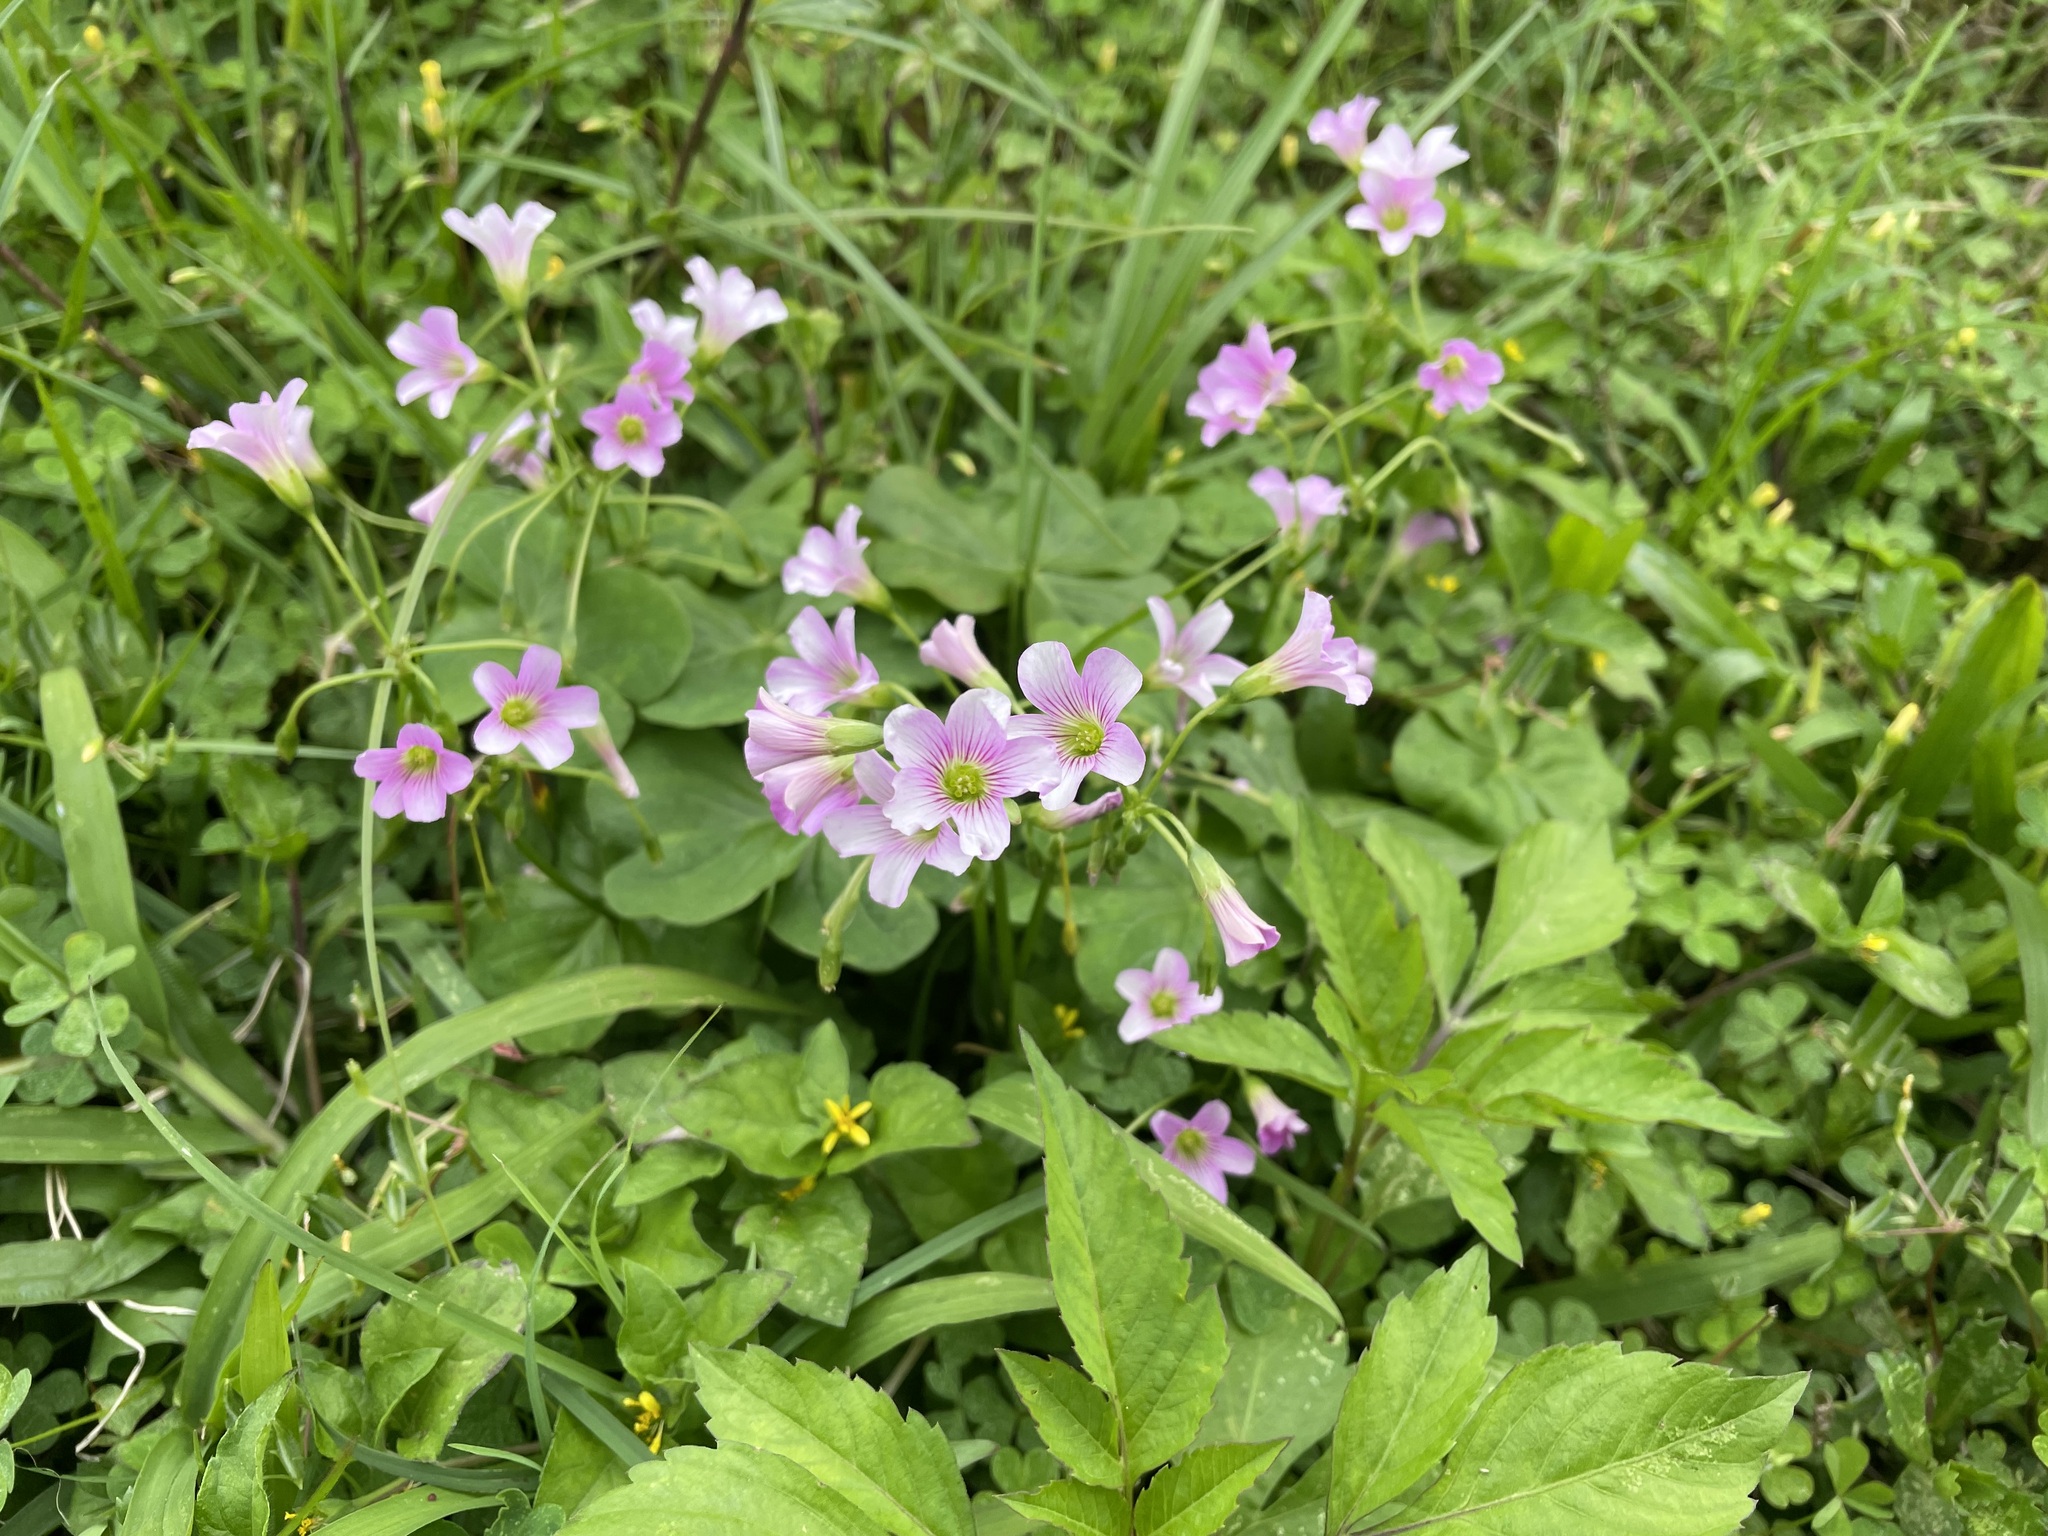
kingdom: Plantae
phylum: Tracheophyta
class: Magnoliopsida
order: Oxalidales
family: Oxalidaceae
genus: Oxalis
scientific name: Oxalis debilis
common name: Large-flowered pink-sorrel
